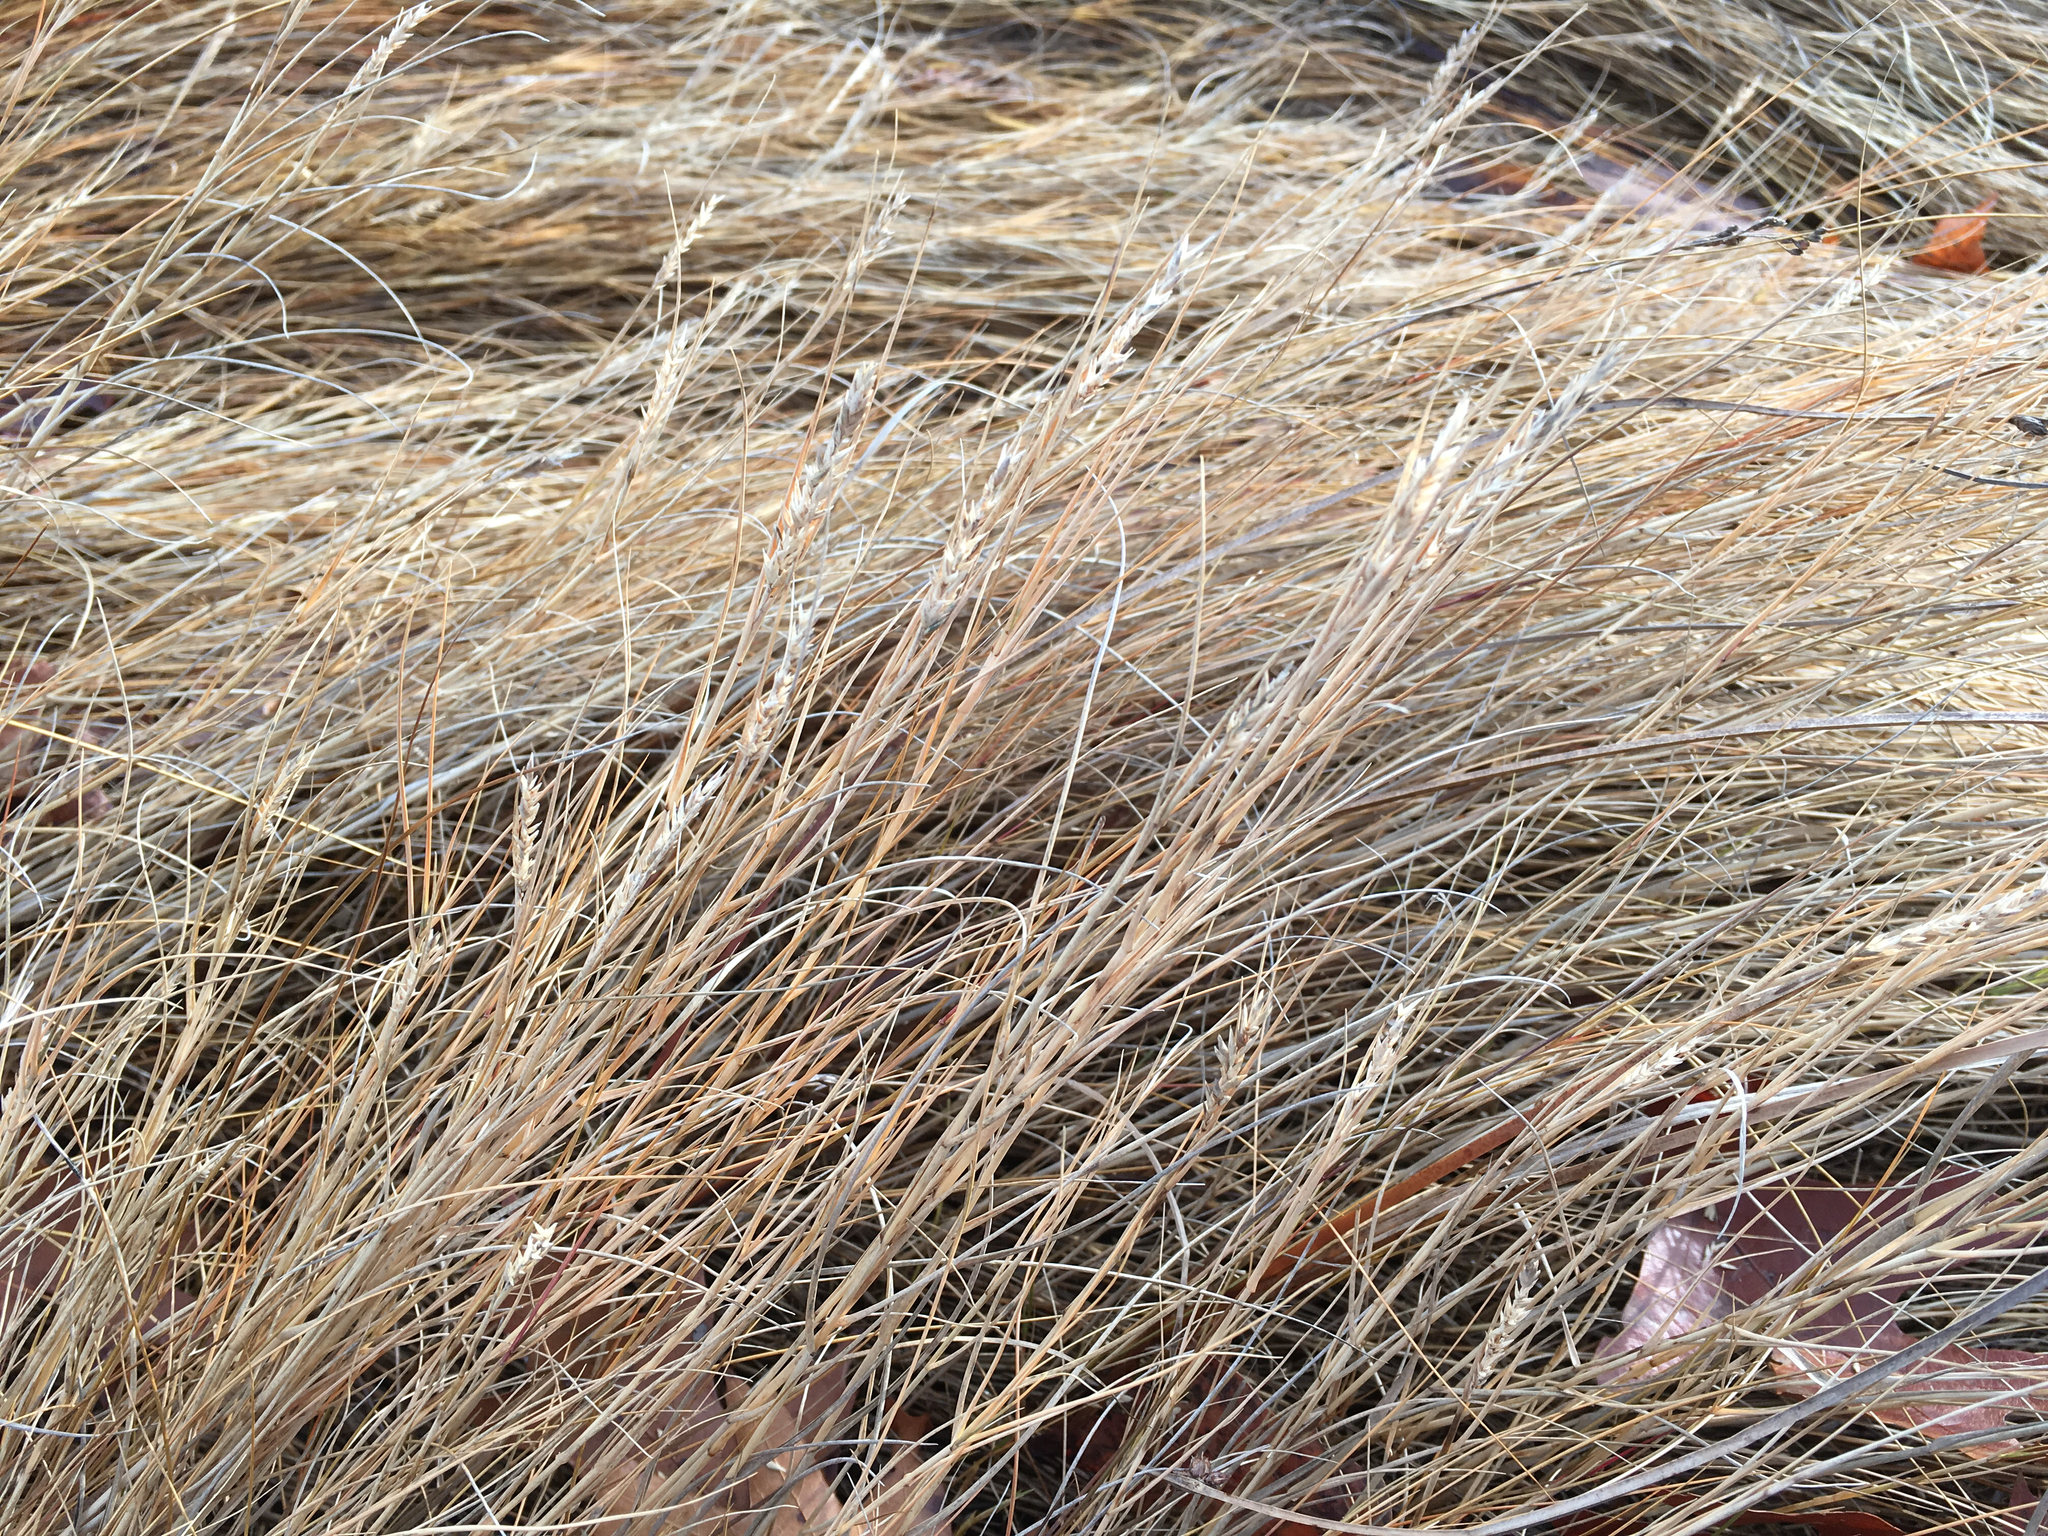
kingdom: Plantae
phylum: Tracheophyta
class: Liliopsida
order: Poales
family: Poaceae
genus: Distichlis
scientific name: Distichlis spicata
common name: Saltgrass
